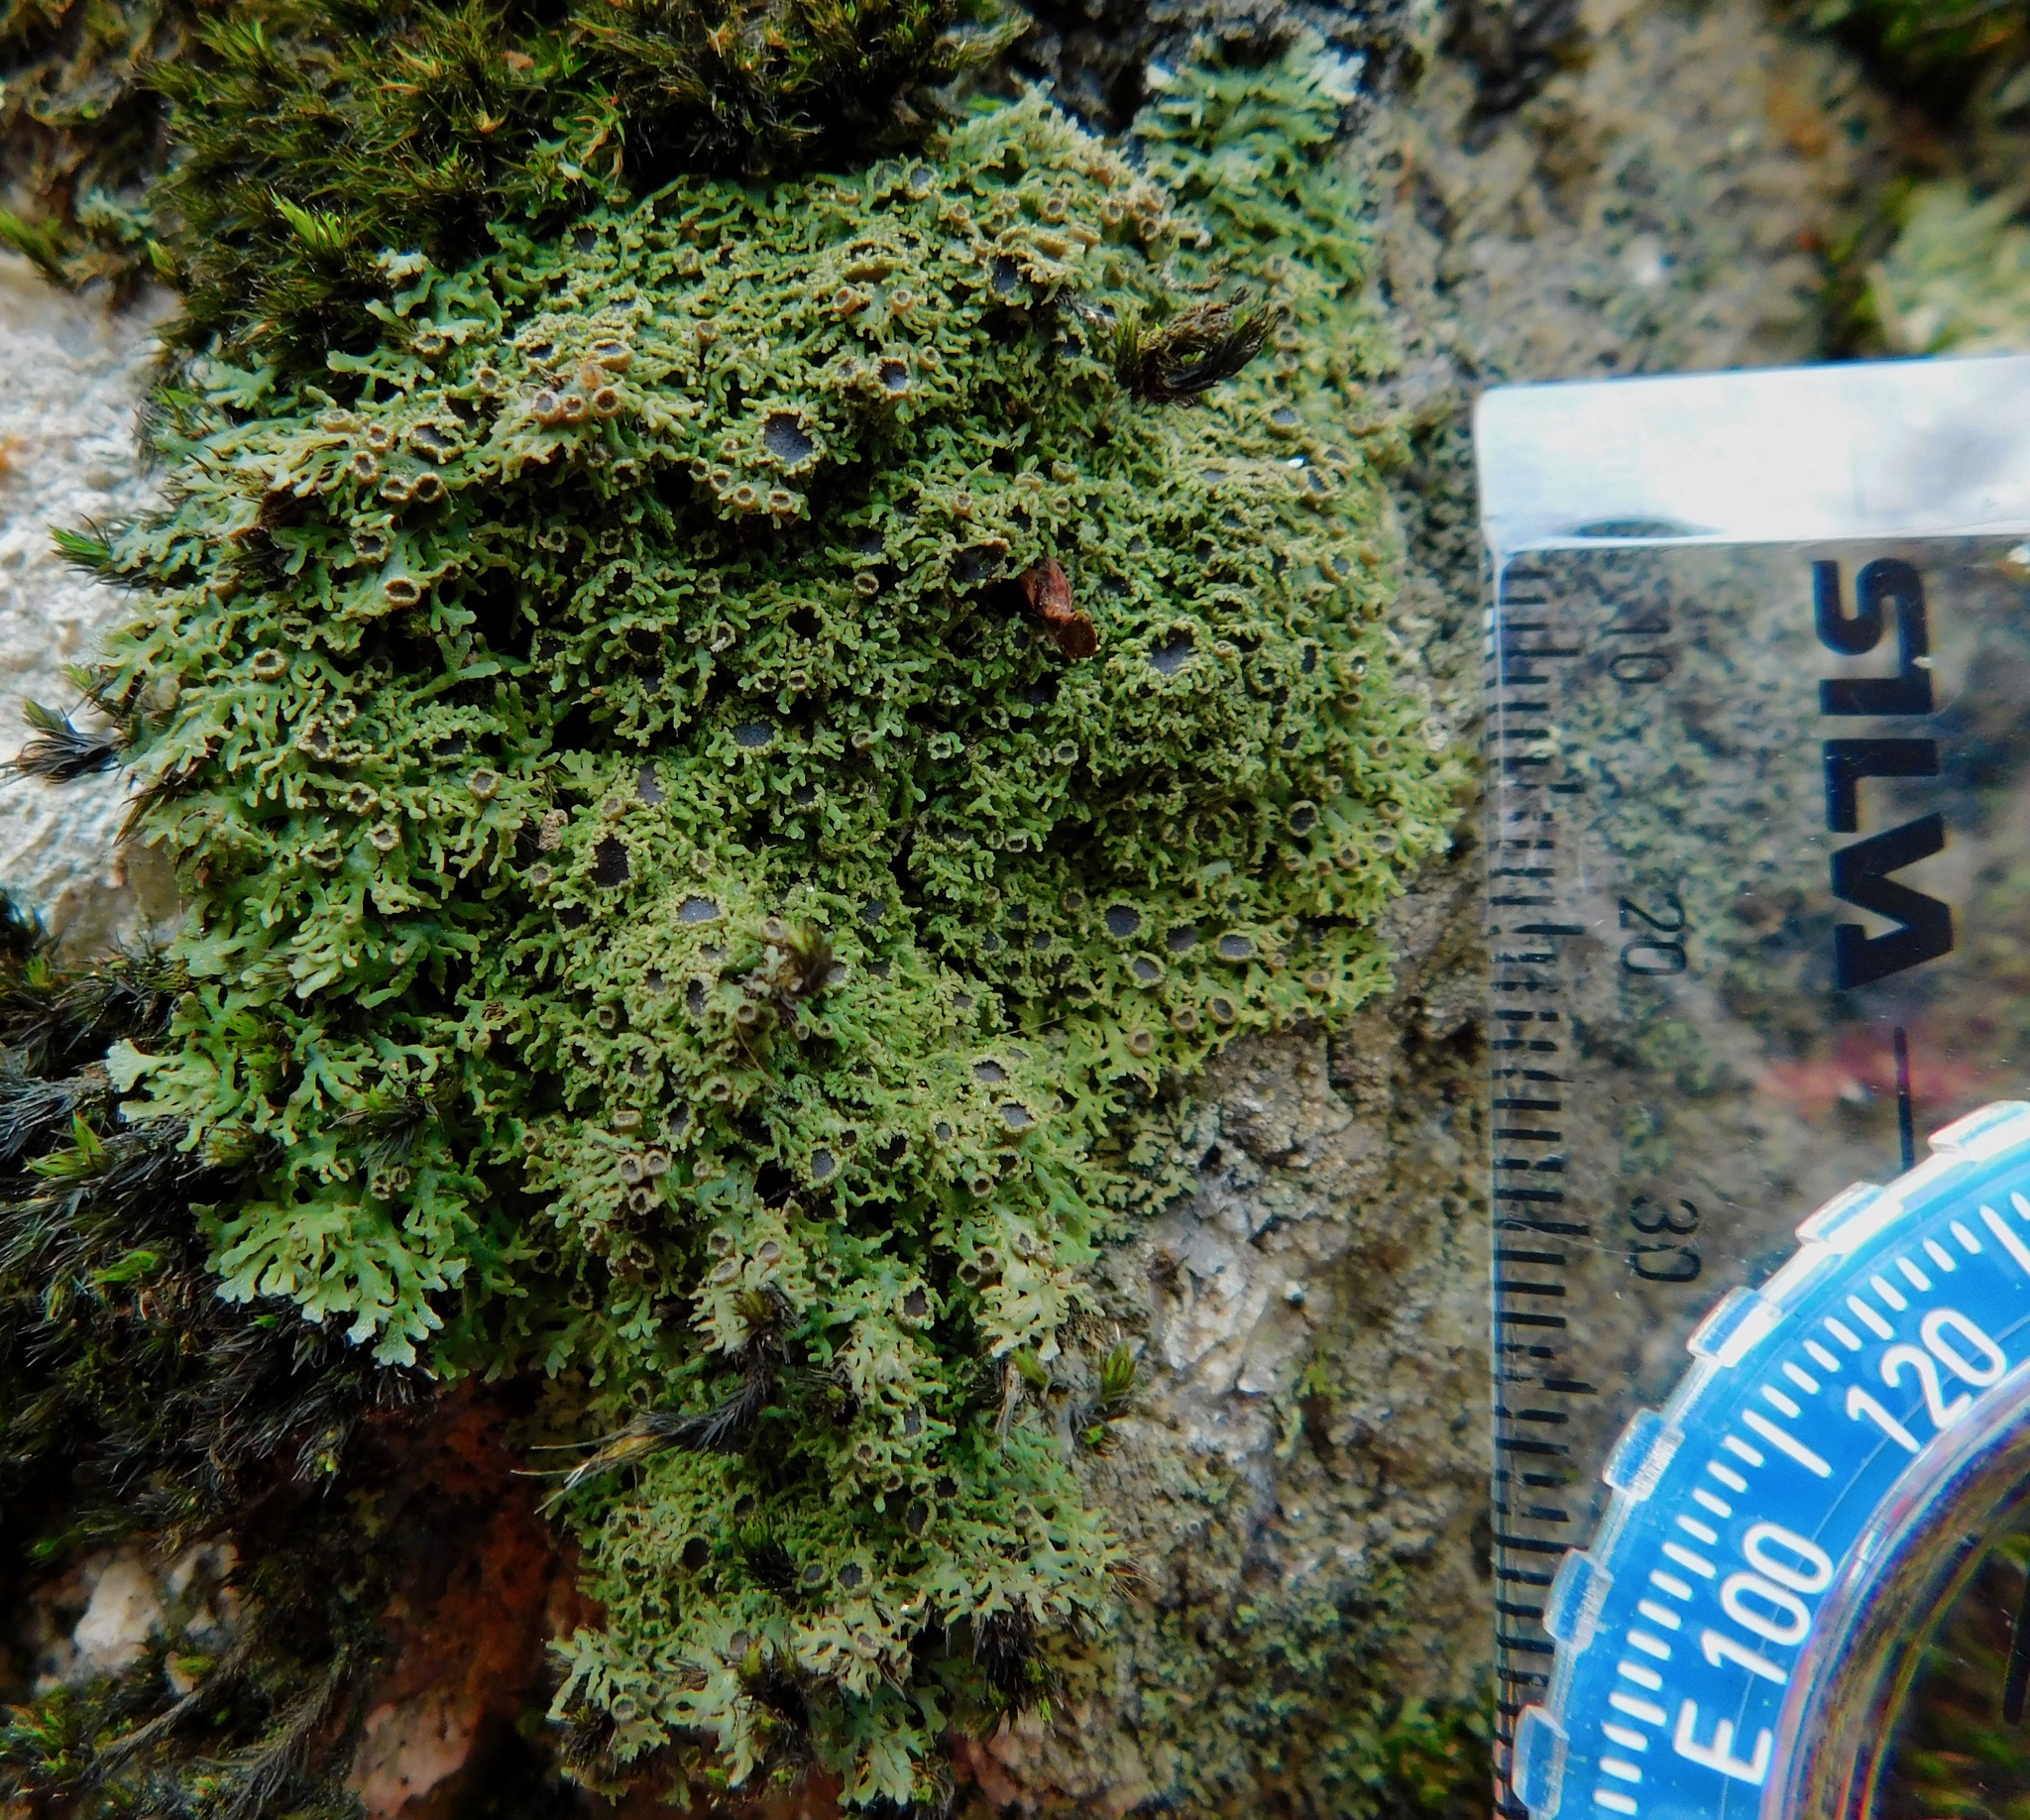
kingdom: Fungi
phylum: Ascomycota
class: Lecanoromycetes
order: Caliciales
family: Physciaceae
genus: Kurokawia
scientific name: Kurokawia palmulata
